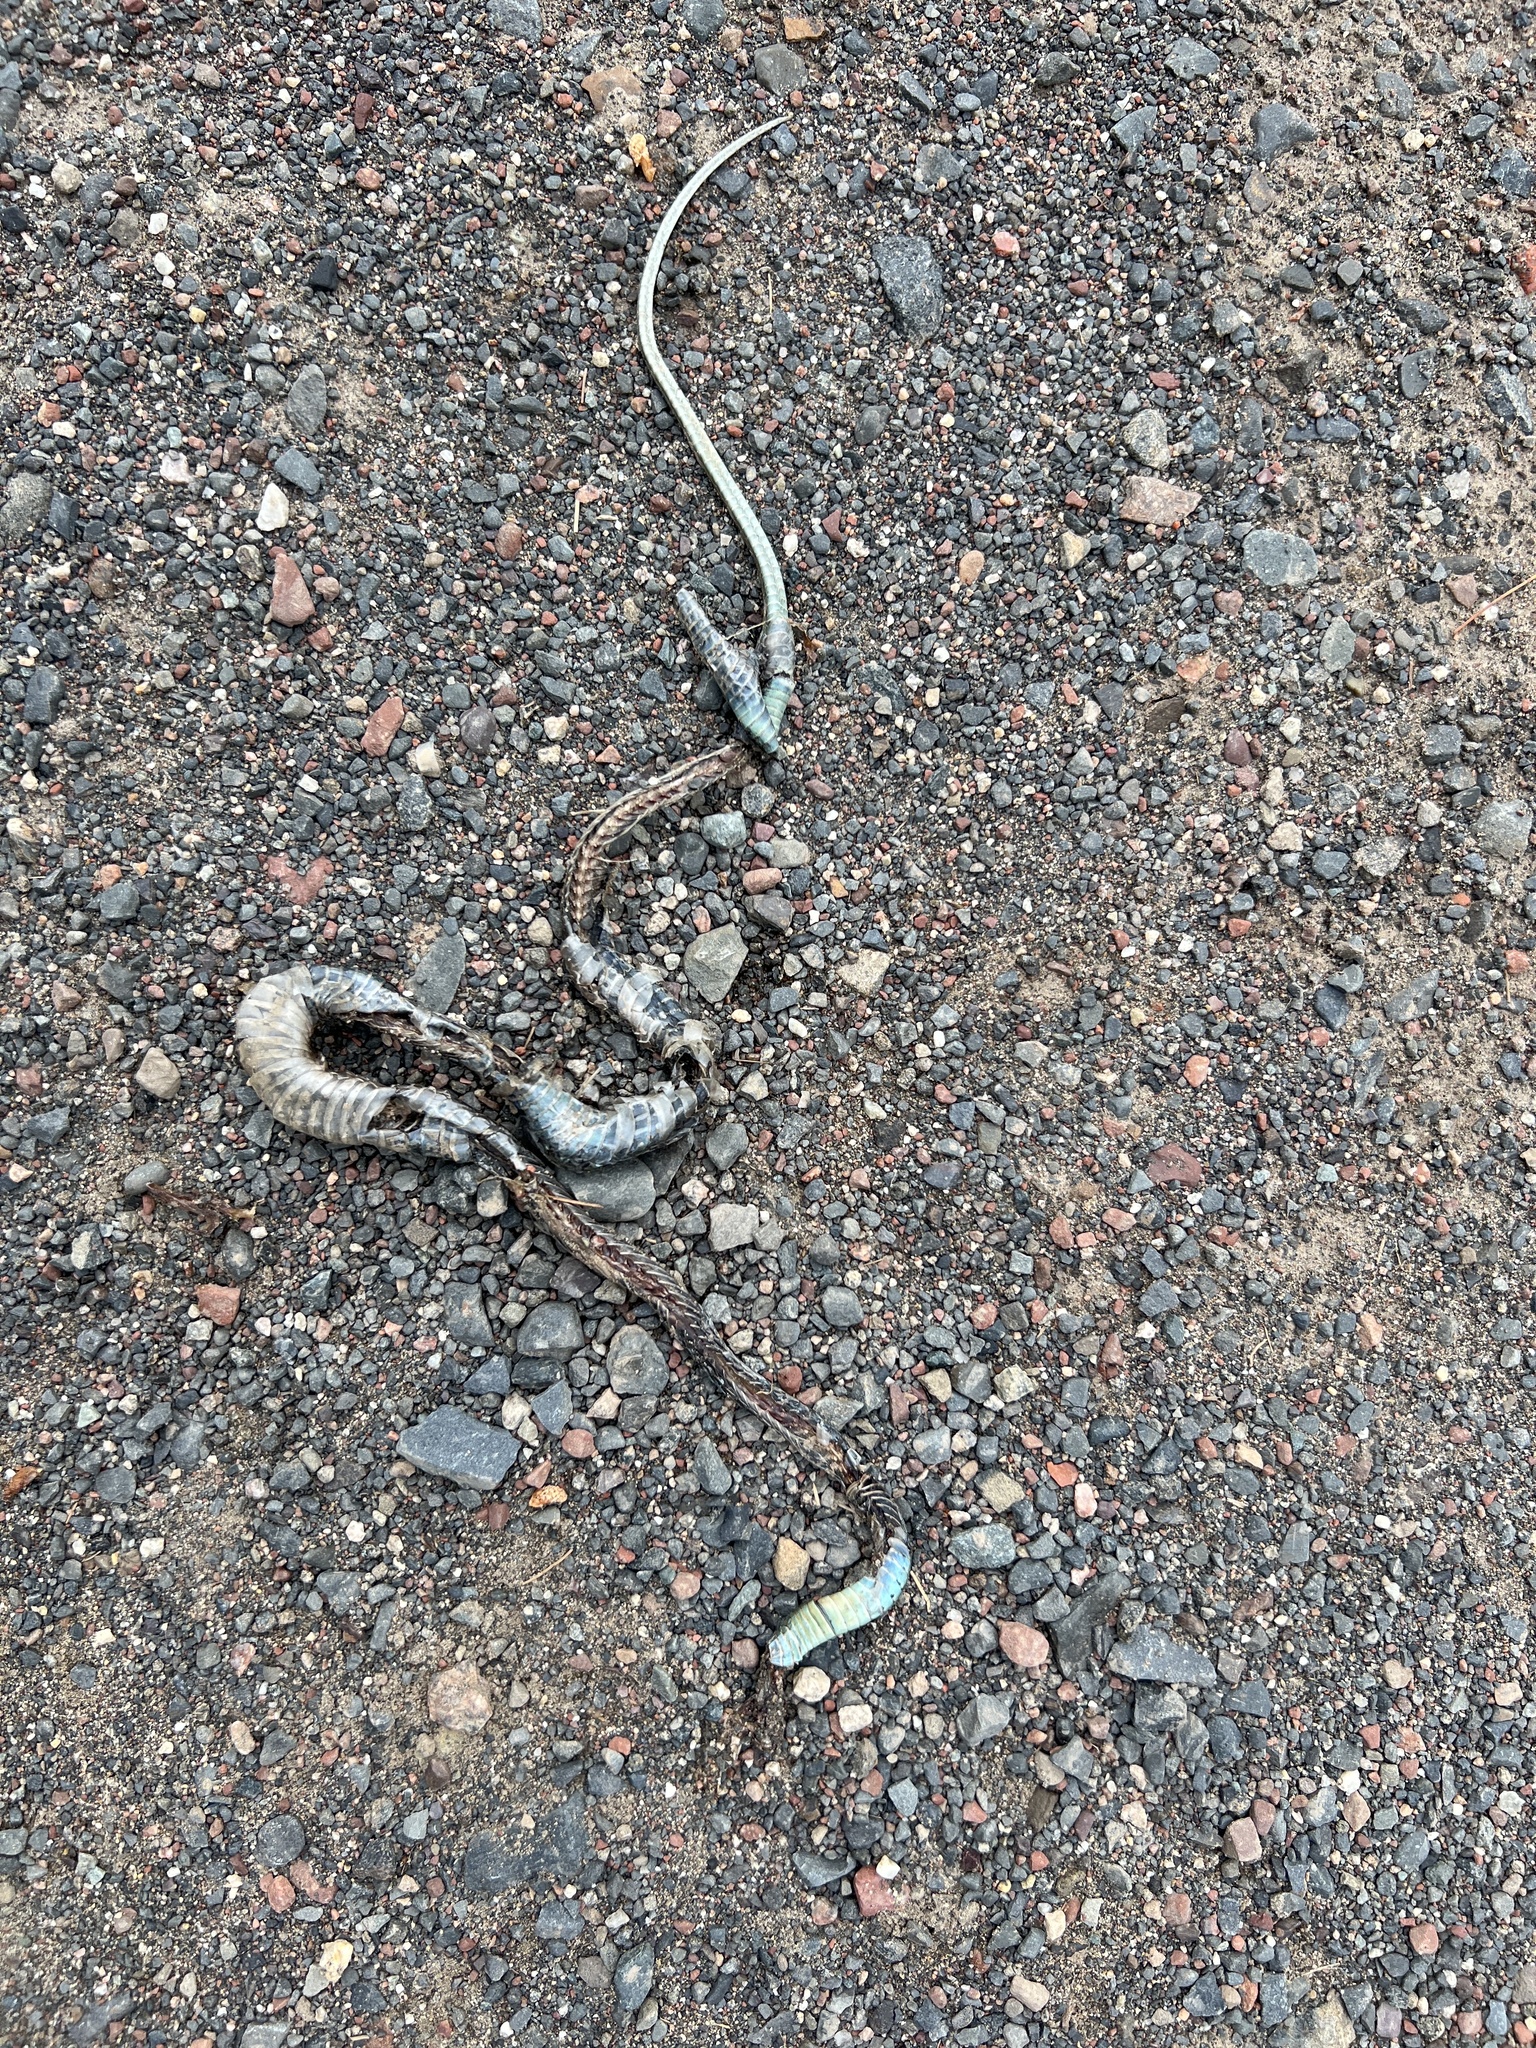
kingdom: Animalia
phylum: Chordata
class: Squamata
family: Colubridae
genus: Thamnophis
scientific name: Thamnophis sirtalis
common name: Common garter snake
